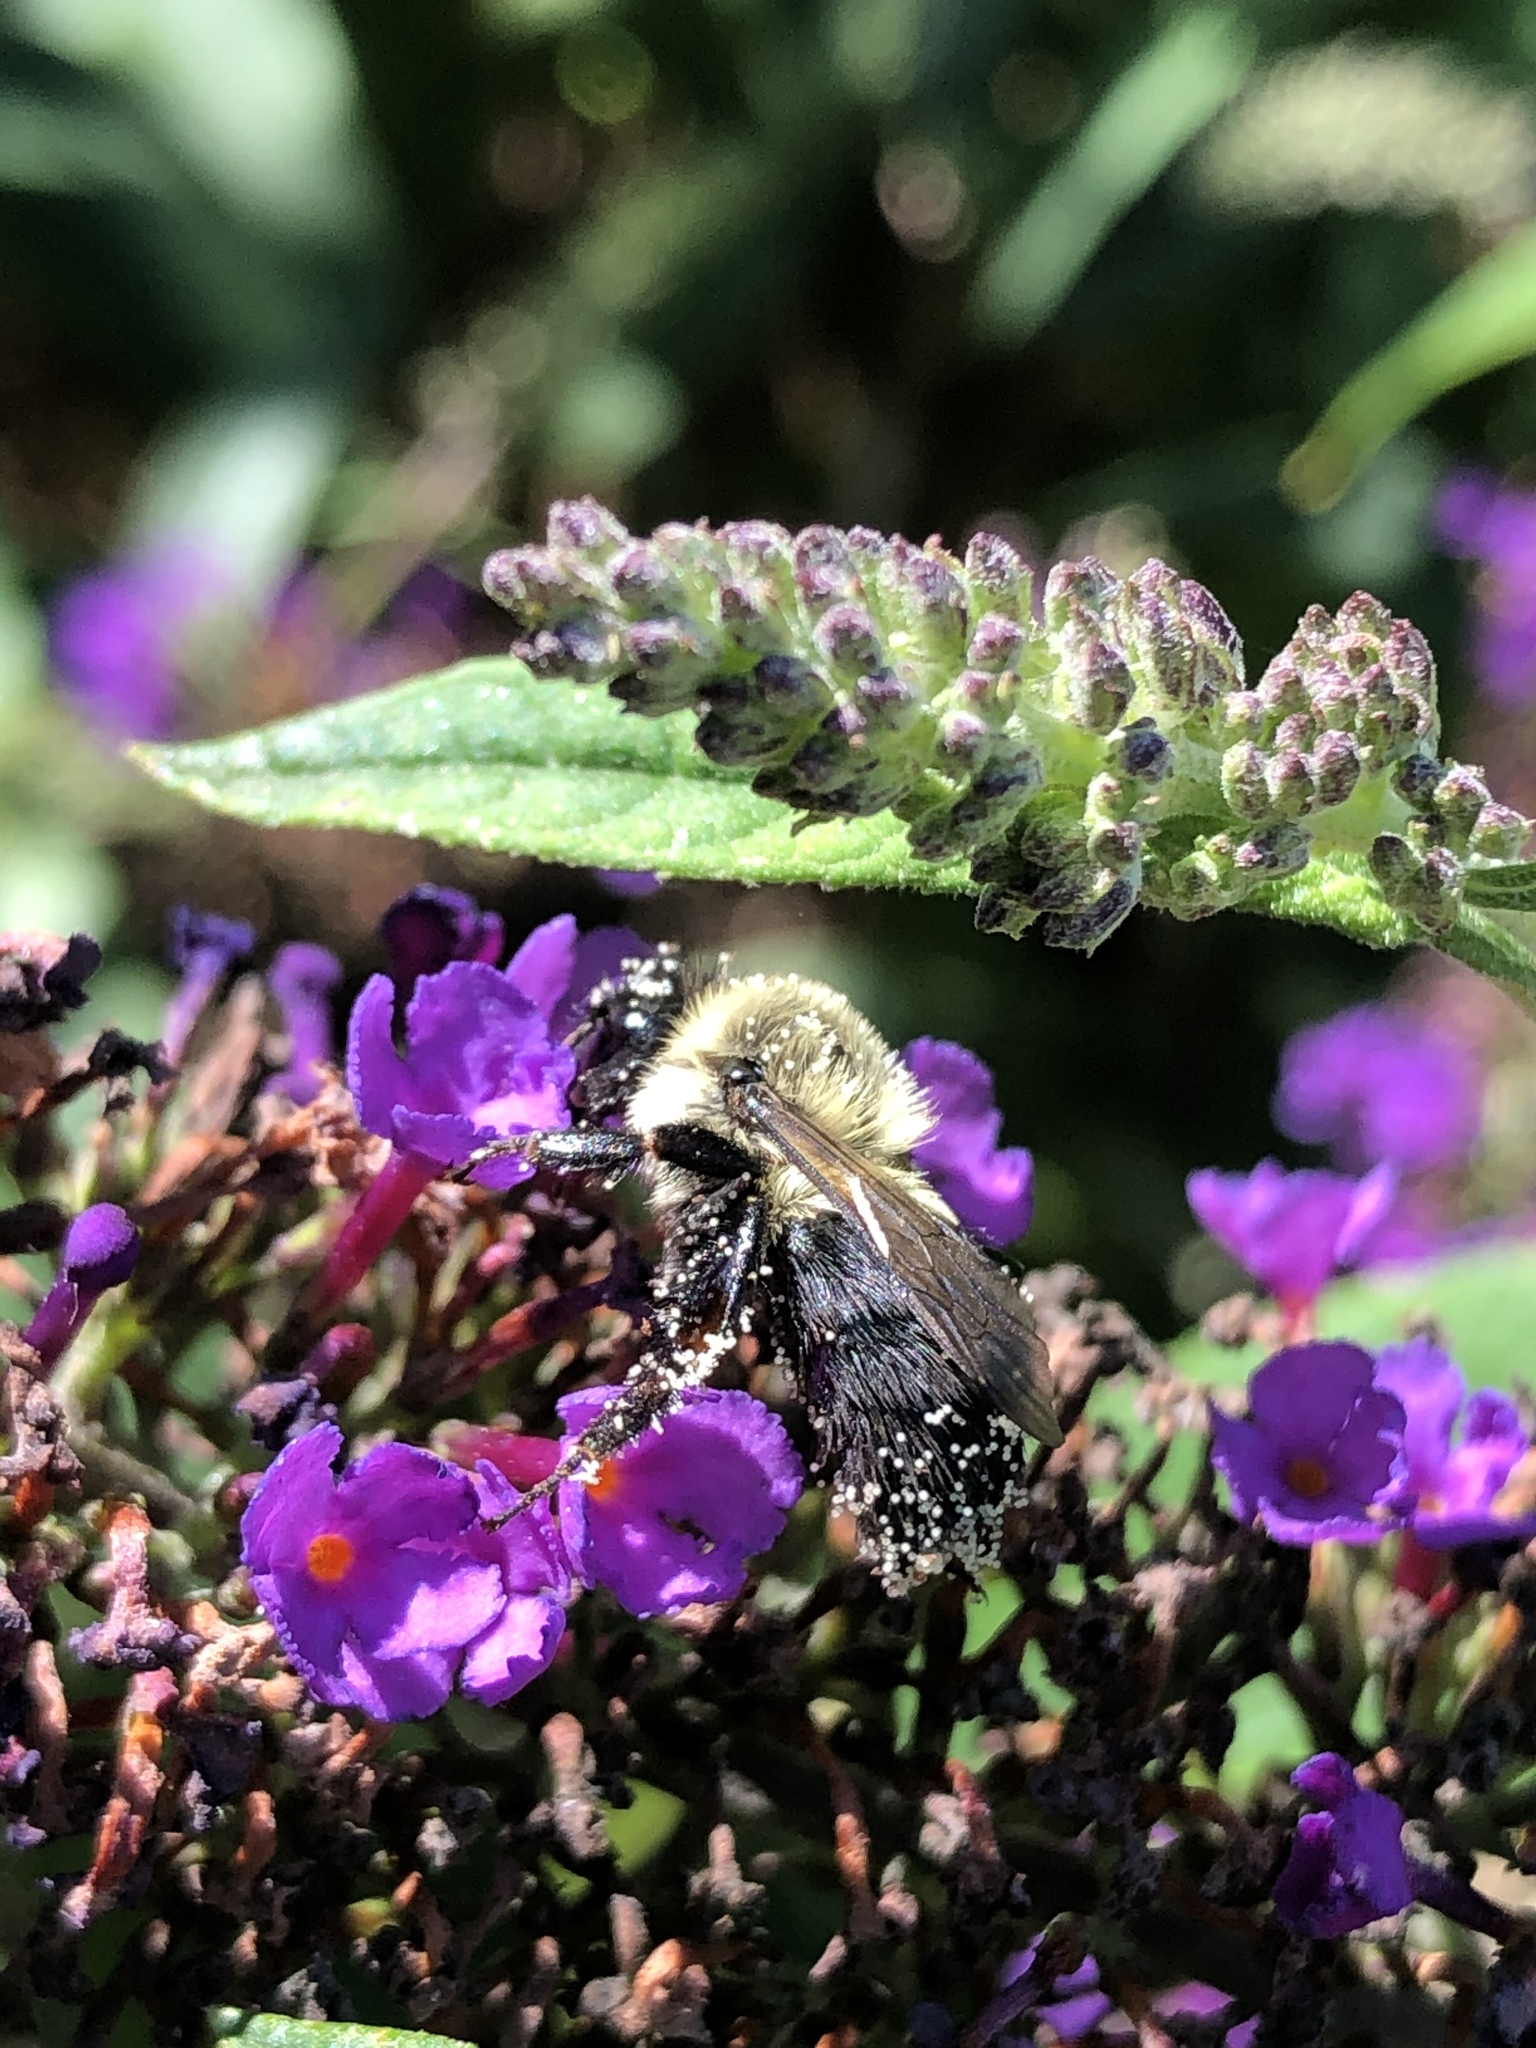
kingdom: Animalia
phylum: Arthropoda
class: Insecta
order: Hymenoptera
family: Apidae
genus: Bombus
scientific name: Bombus impatiens
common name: Common eastern bumble bee
